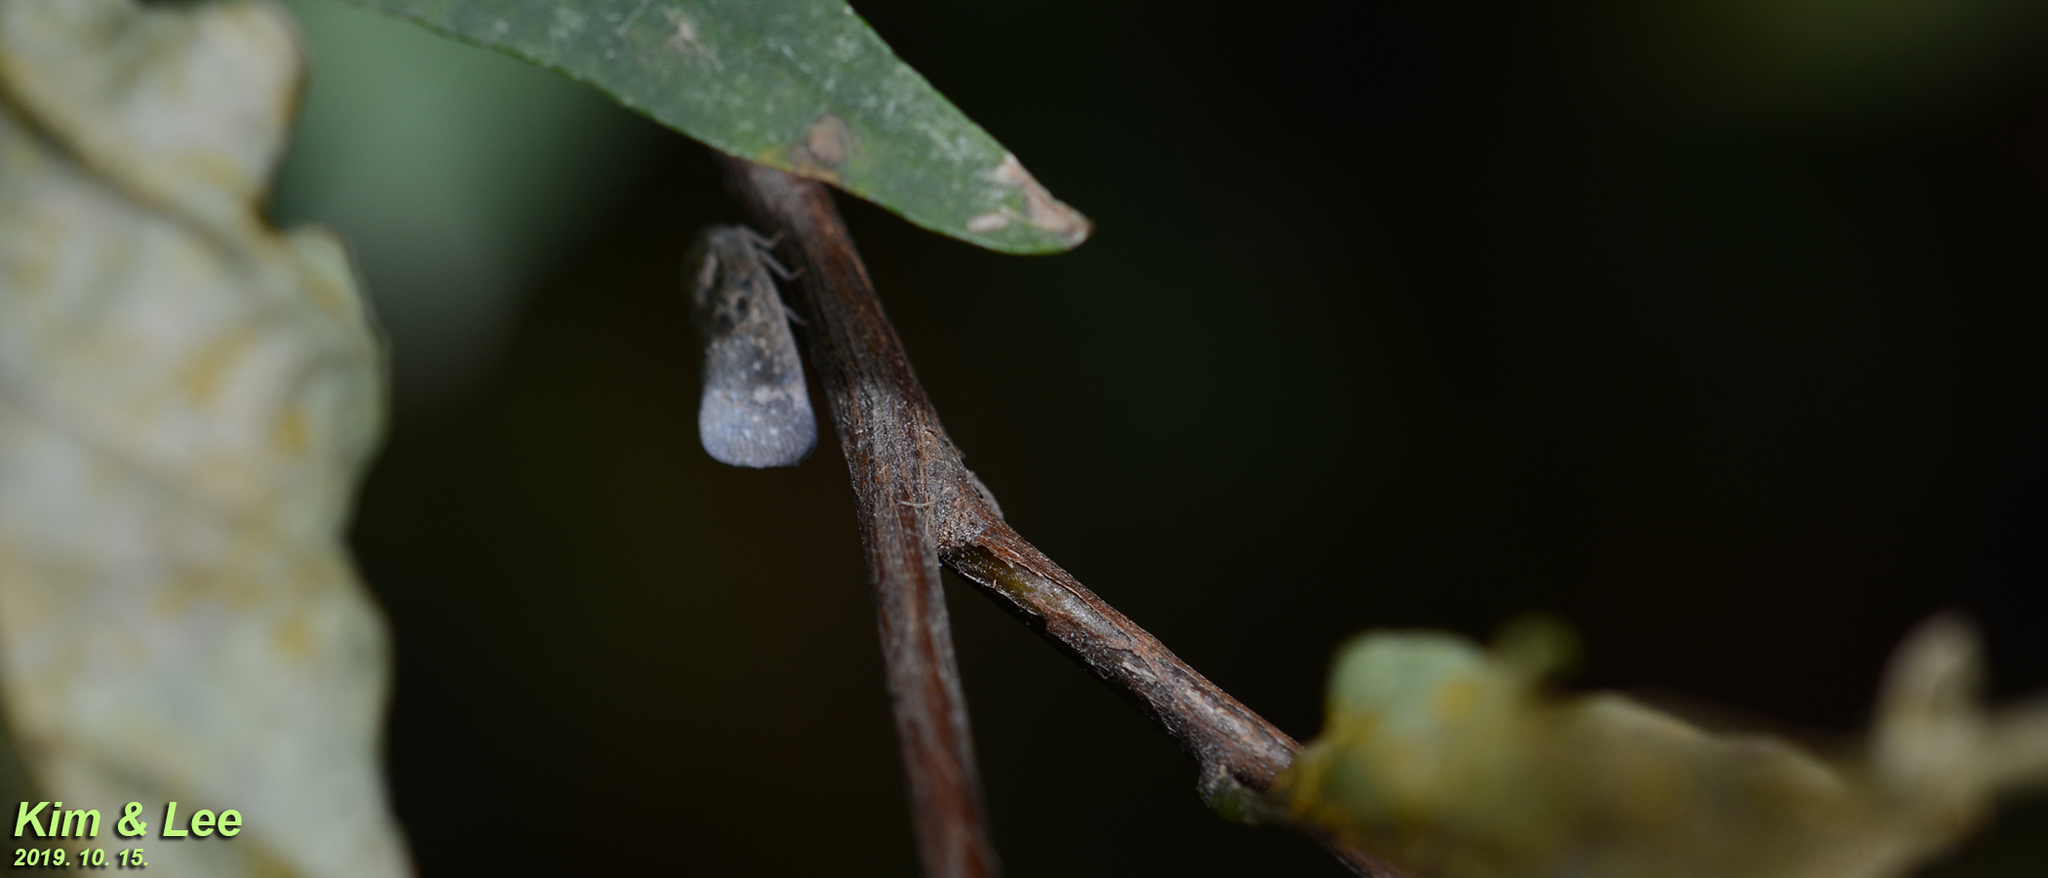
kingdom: Animalia
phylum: Arthropoda
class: Insecta
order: Hemiptera
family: Flatidae
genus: Metcalfa
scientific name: Metcalfa pruinosa
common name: Citrus flatid planthopper
